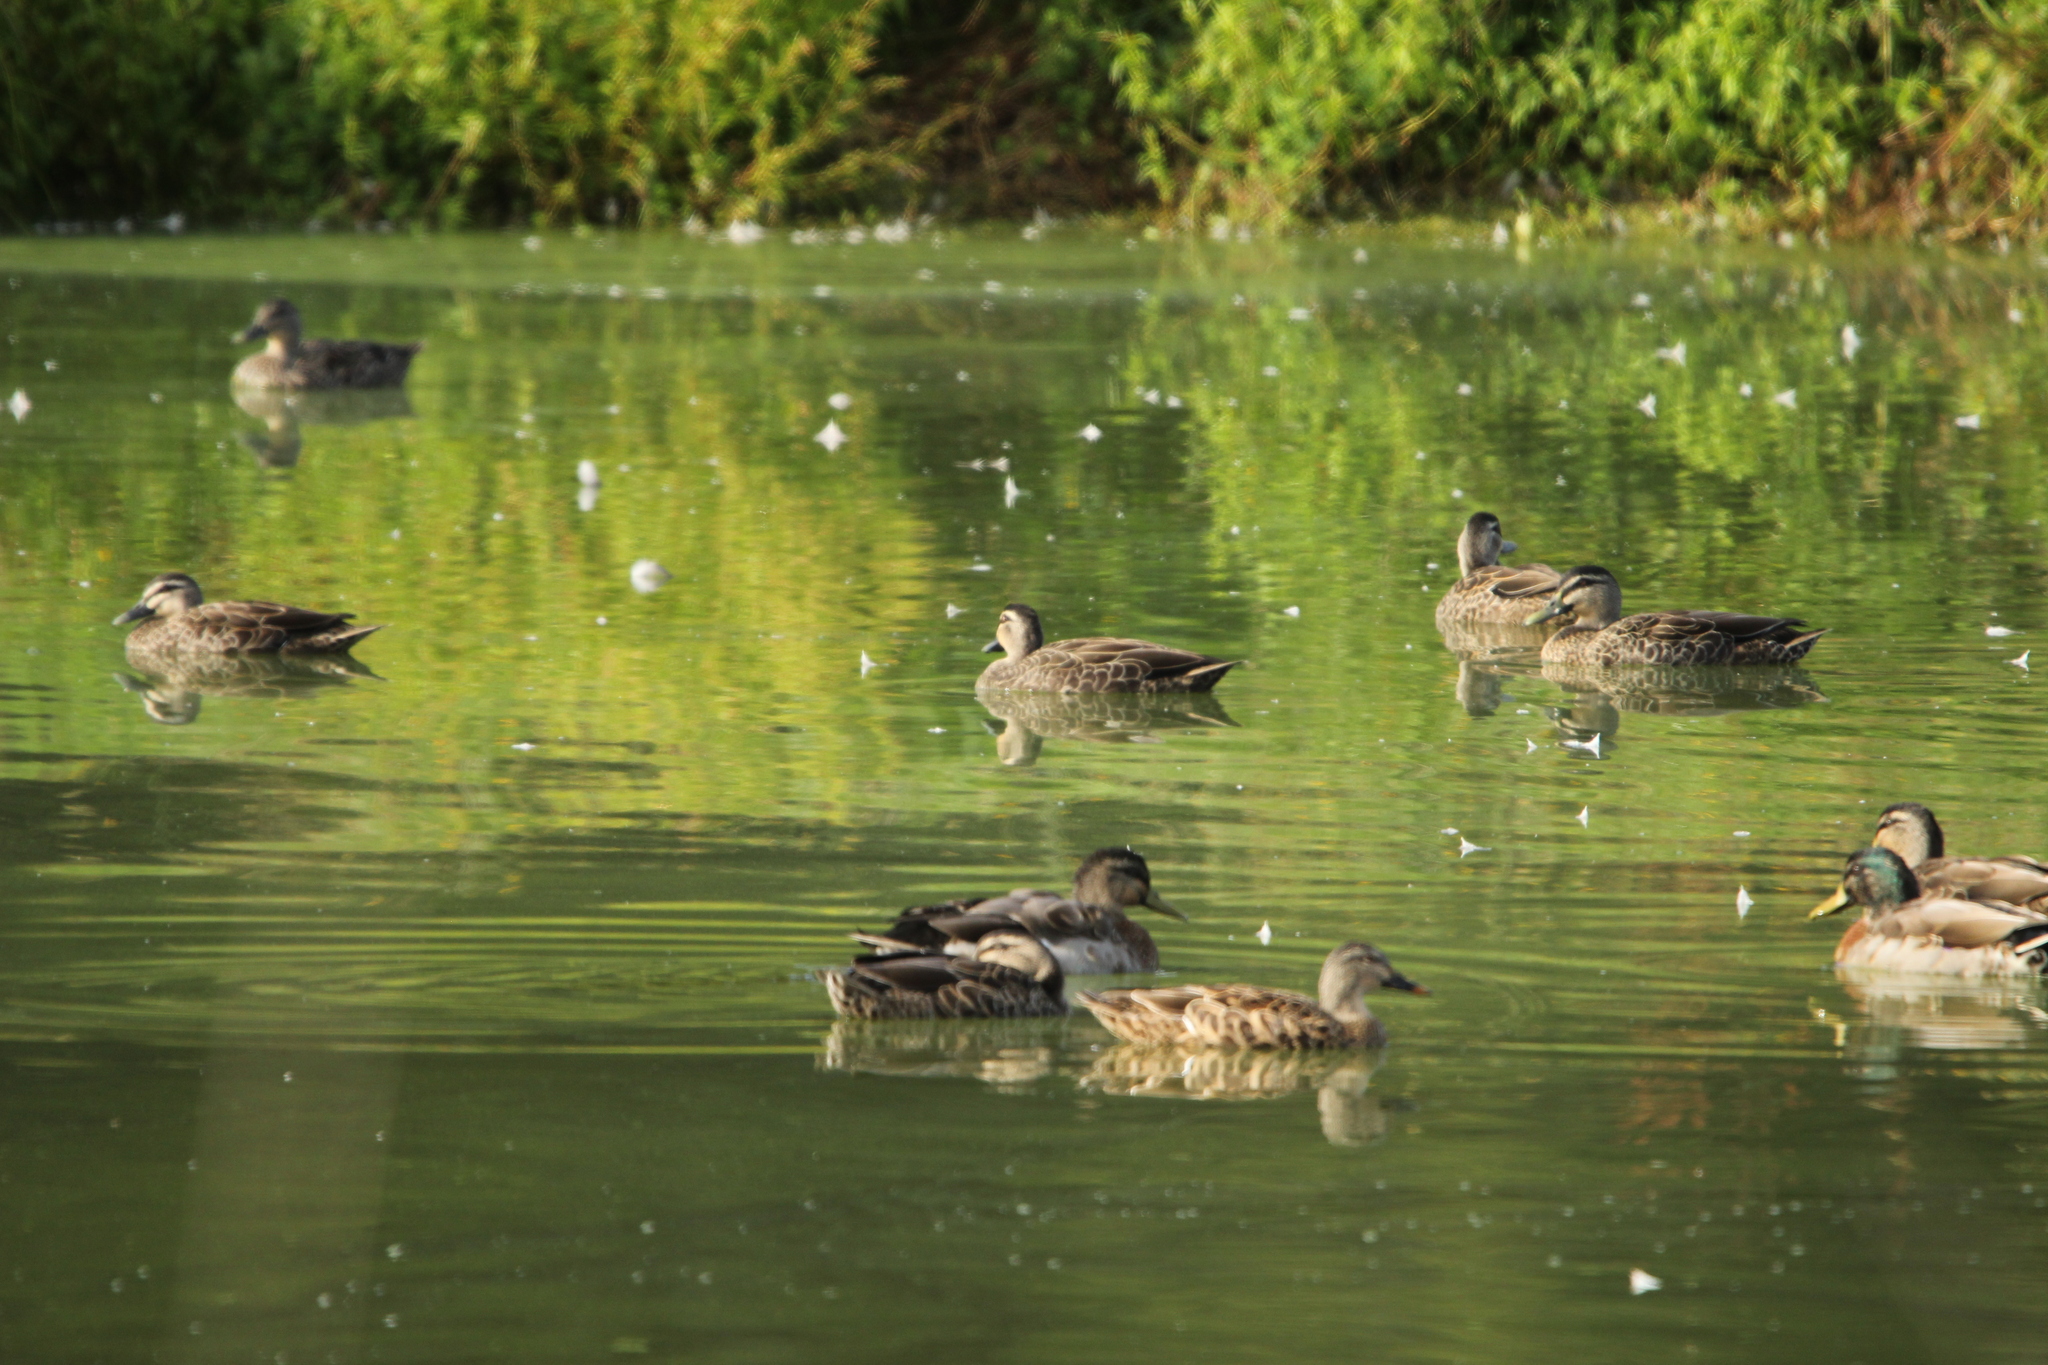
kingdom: Animalia
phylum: Chordata
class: Aves
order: Anseriformes
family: Anatidae
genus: Anas
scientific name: Anas
